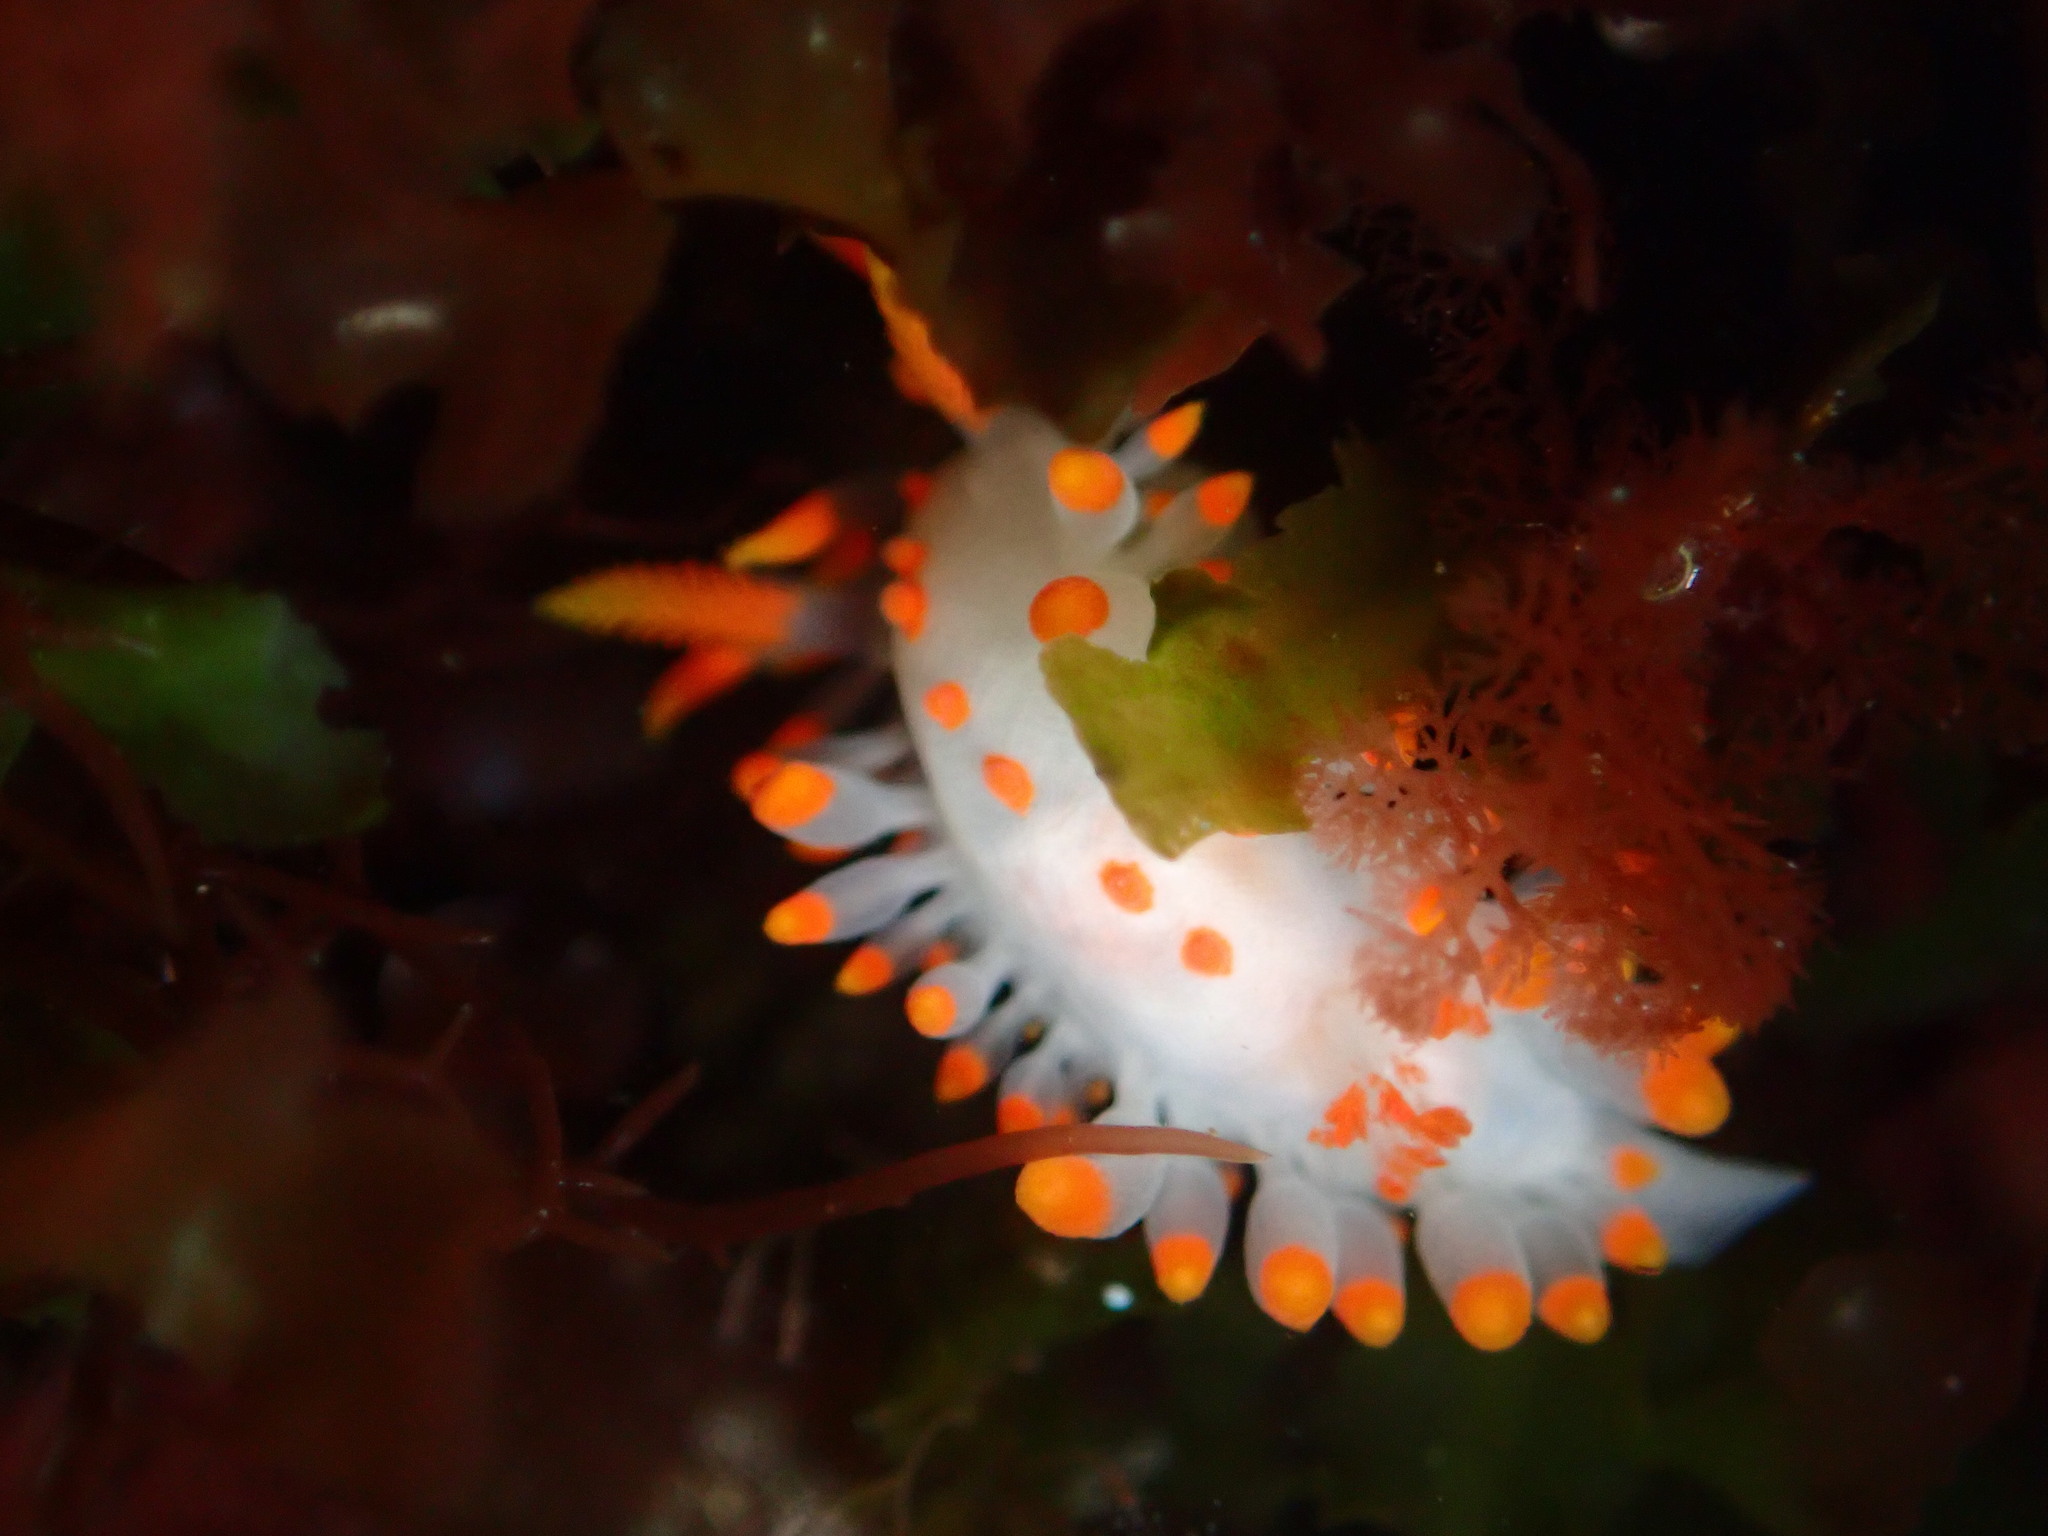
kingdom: Animalia
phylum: Mollusca
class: Gastropoda
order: Nudibranchia
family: Polyceridae
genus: Limacia
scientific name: Limacia mcdonaldi
